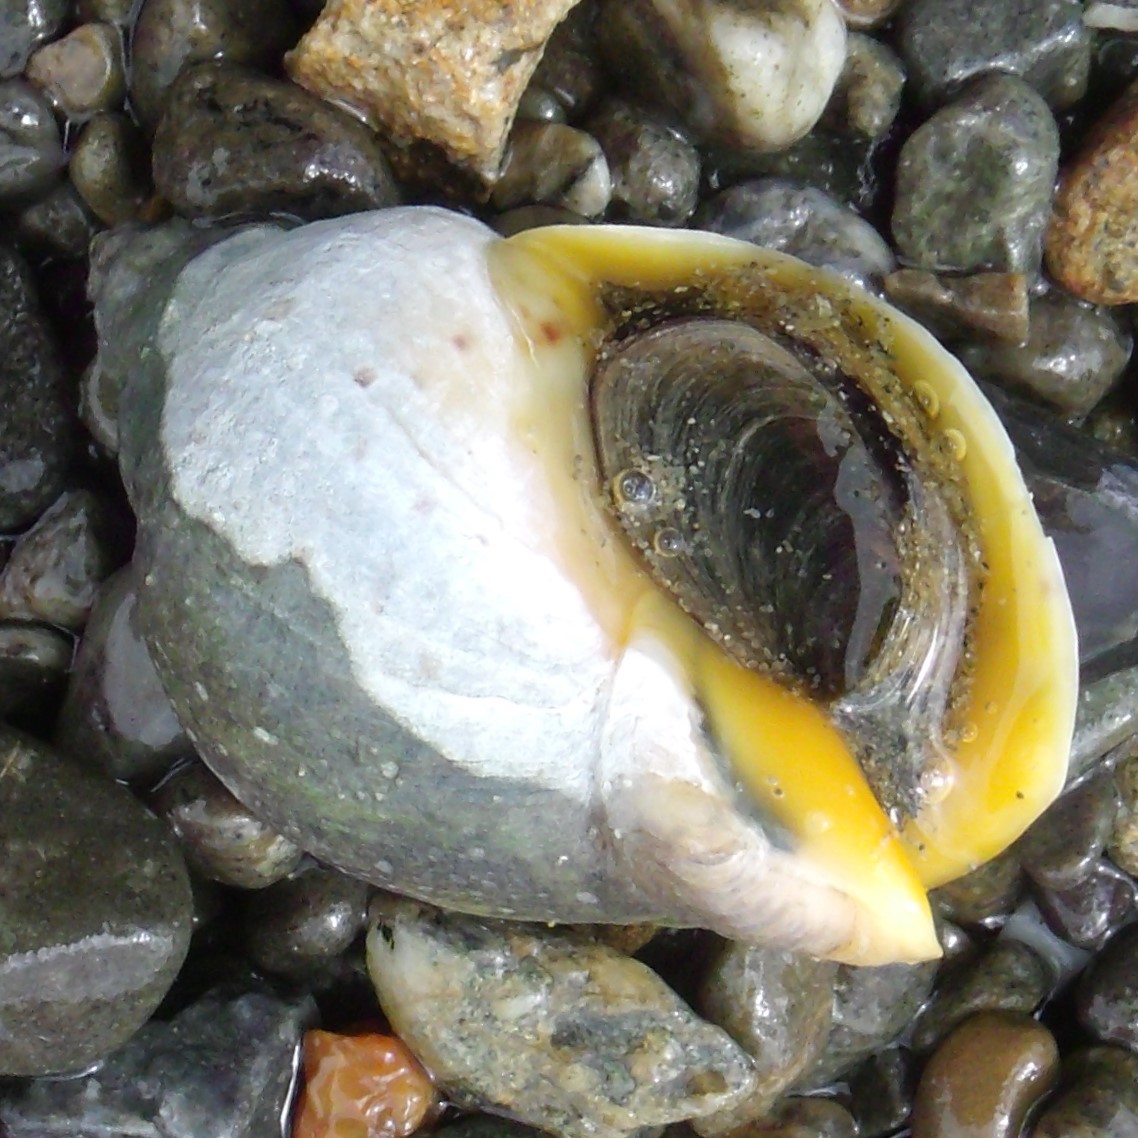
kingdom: Animalia
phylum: Mollusca
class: Gastropoda
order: Neogastropoda
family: Cominellidae
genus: Cominella
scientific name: Cominella adspersa
